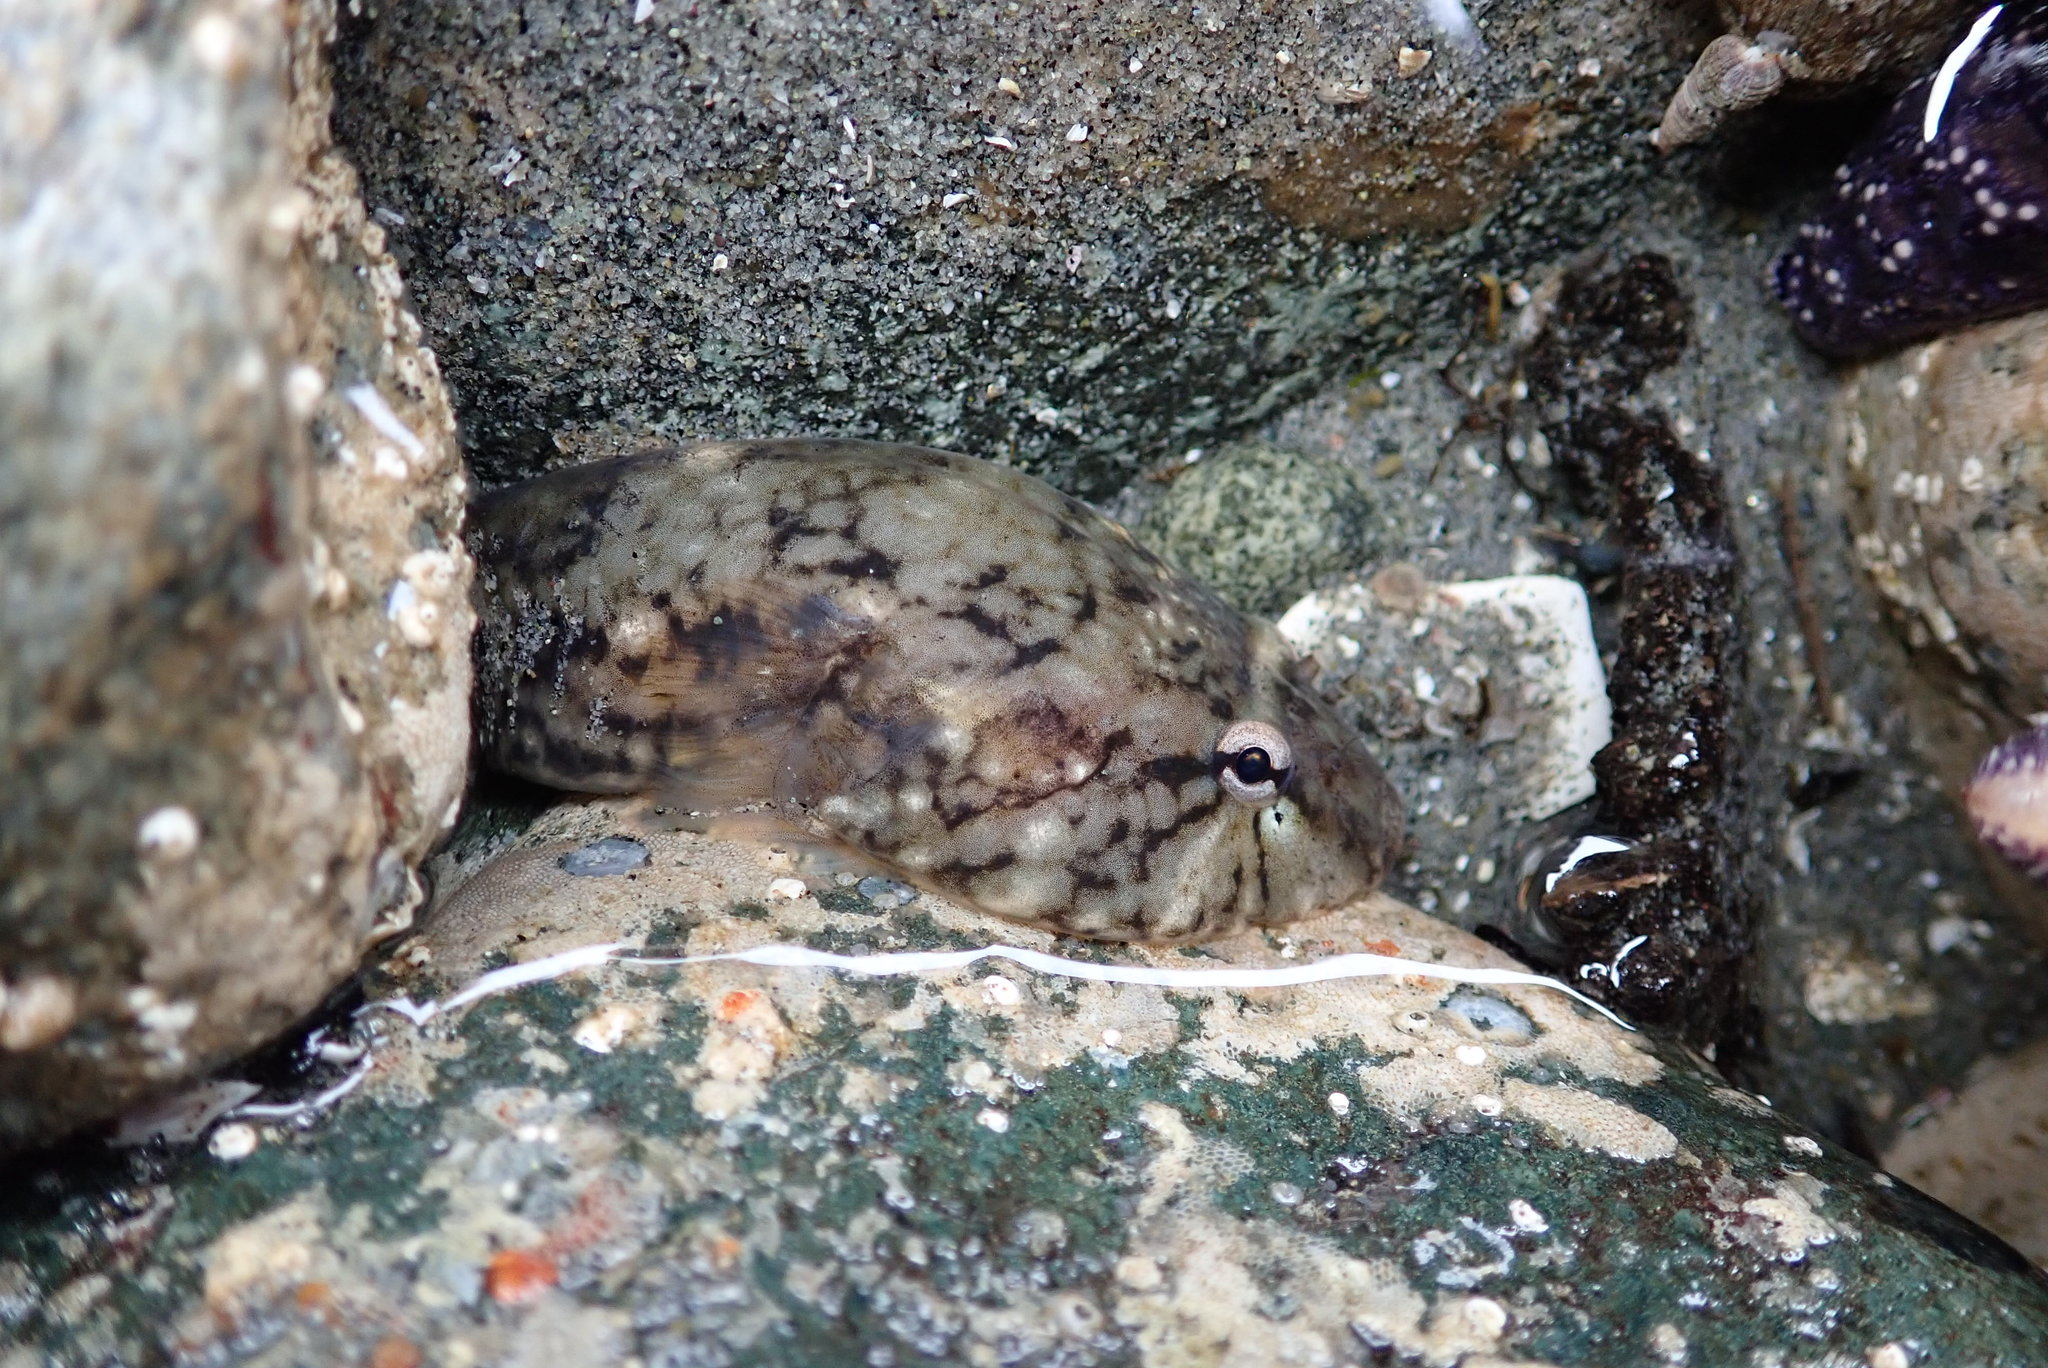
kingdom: Animalia
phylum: Chordata
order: Gobiesociformes
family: Gobiesocidae
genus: Gobiesox
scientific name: Gobiesox maeandricus
